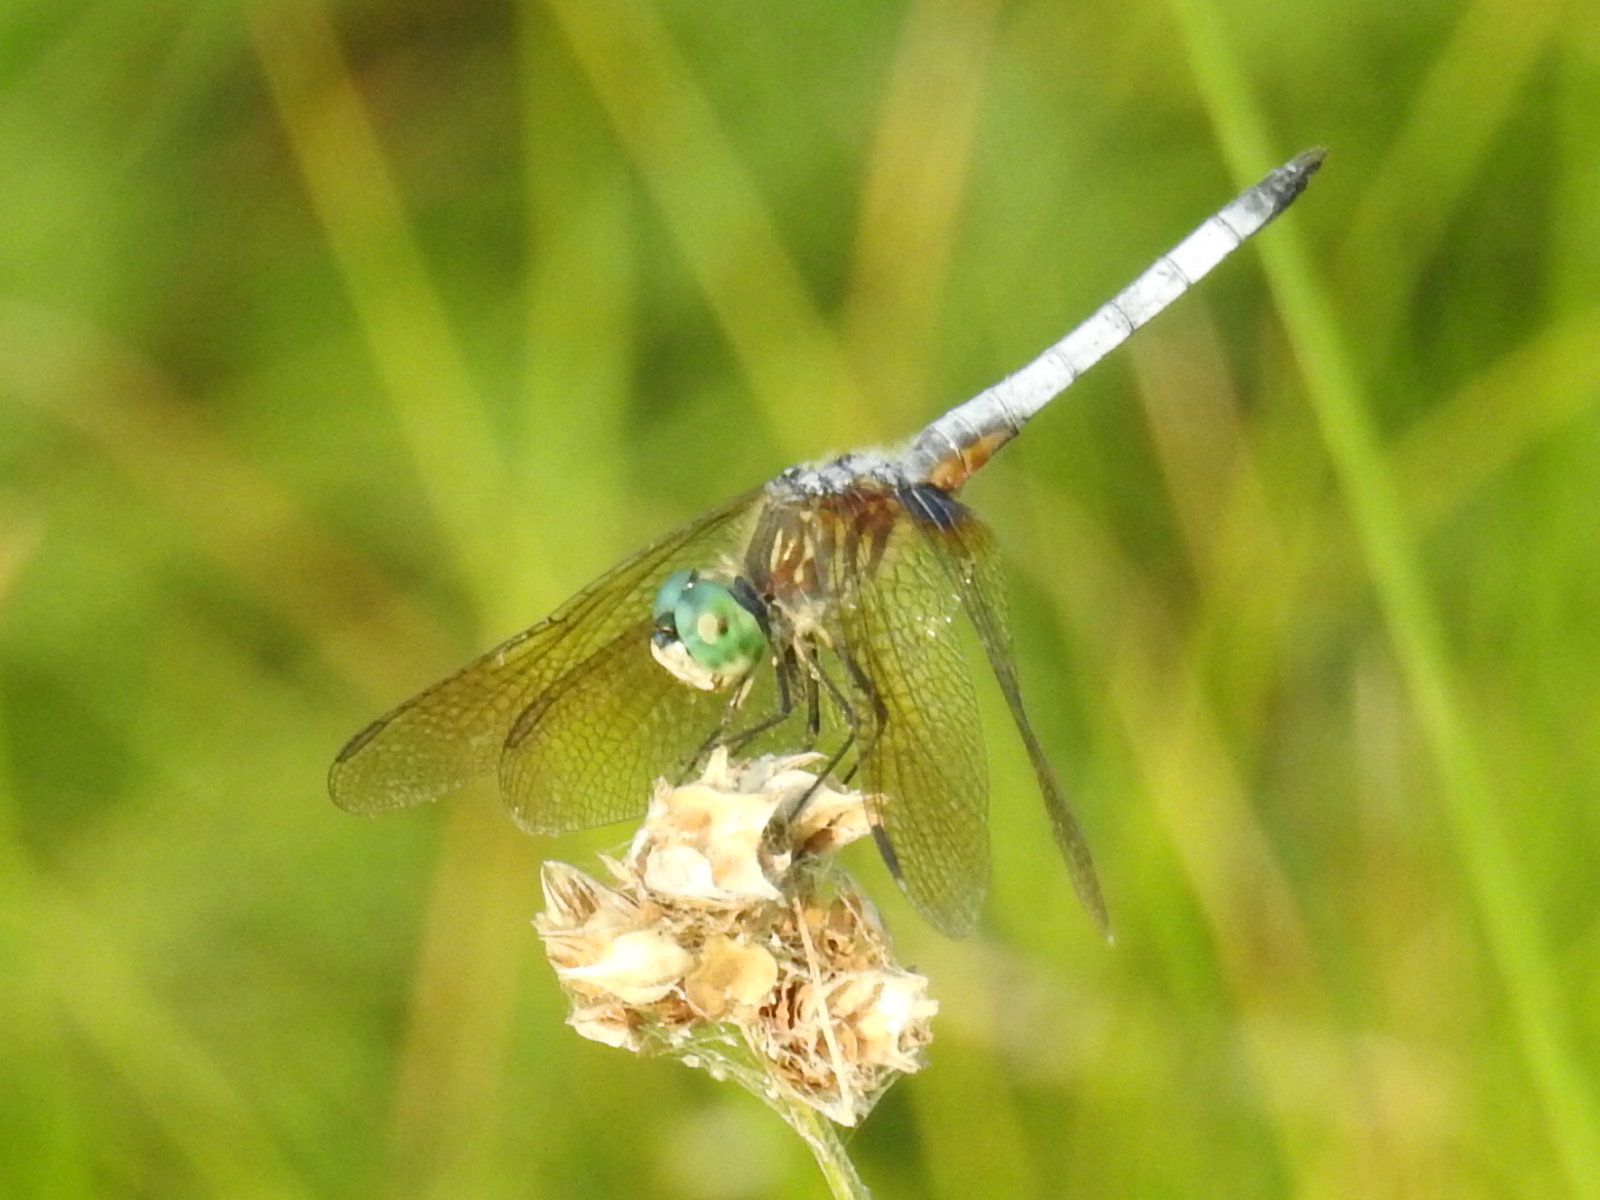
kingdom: Animalia
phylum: Arthropoda
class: Insecta
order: Odonata
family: Libellulidae
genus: Pachydiplax
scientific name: Pachydiplax longipennis
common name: Blue dasher
